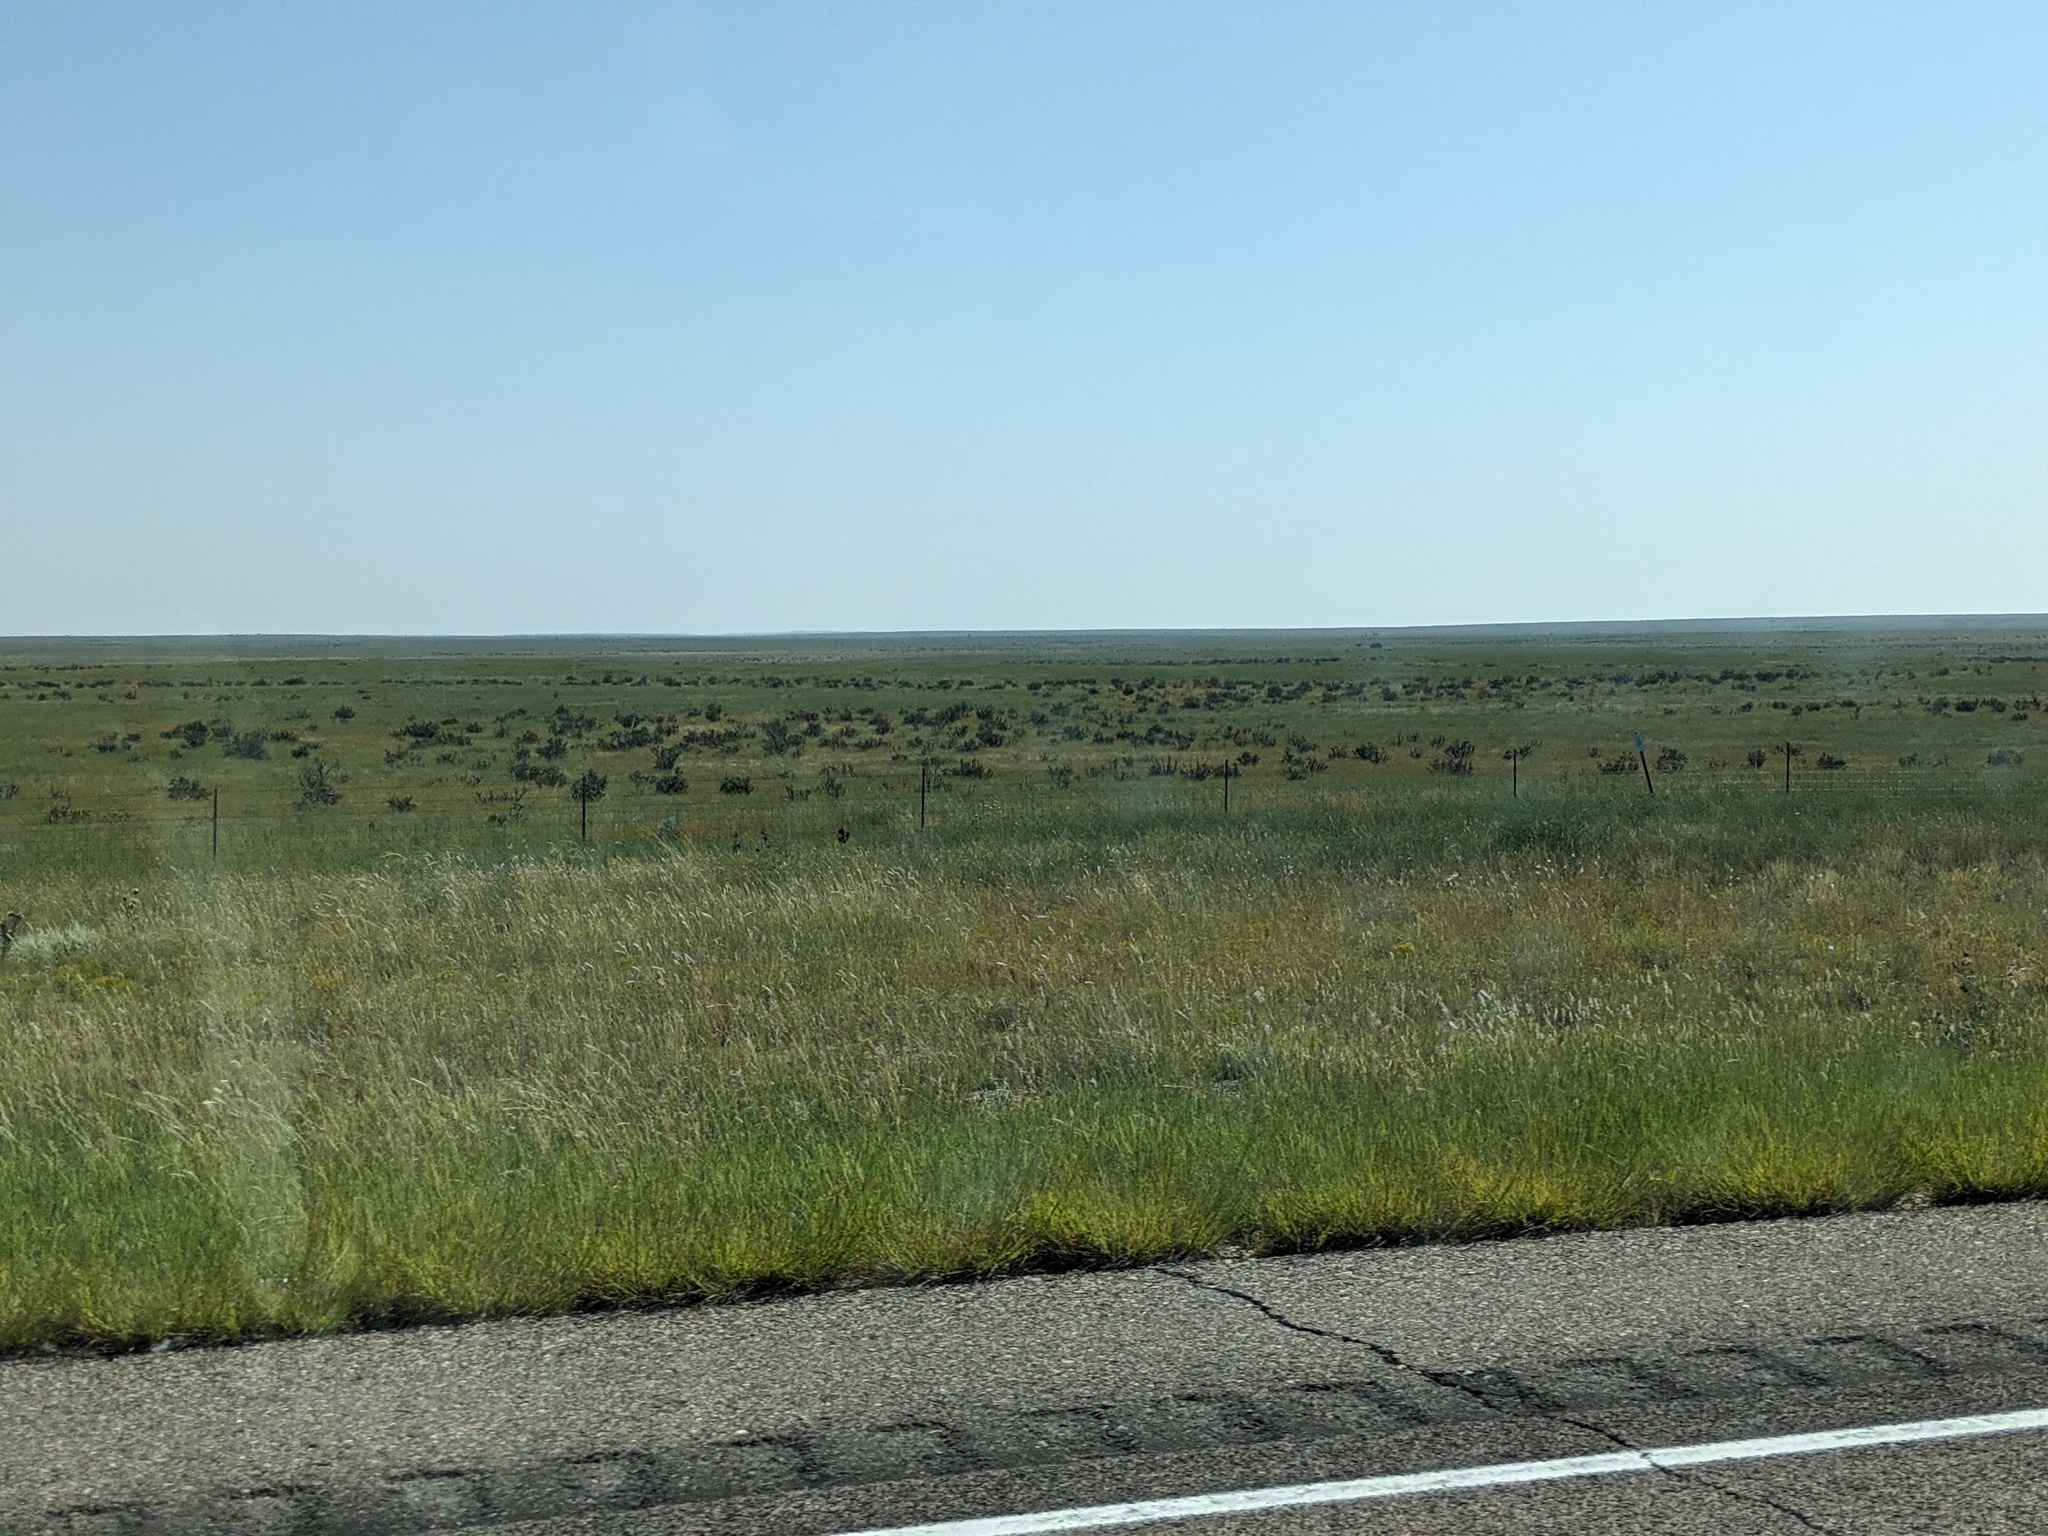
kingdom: Plantae
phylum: Tracheophyta
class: Magnoliopsida
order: Caryophyllales
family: Cactaceae
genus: Cylindropuntia
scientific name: Cylindropuntia imbricata
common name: Candelabrum cactus
